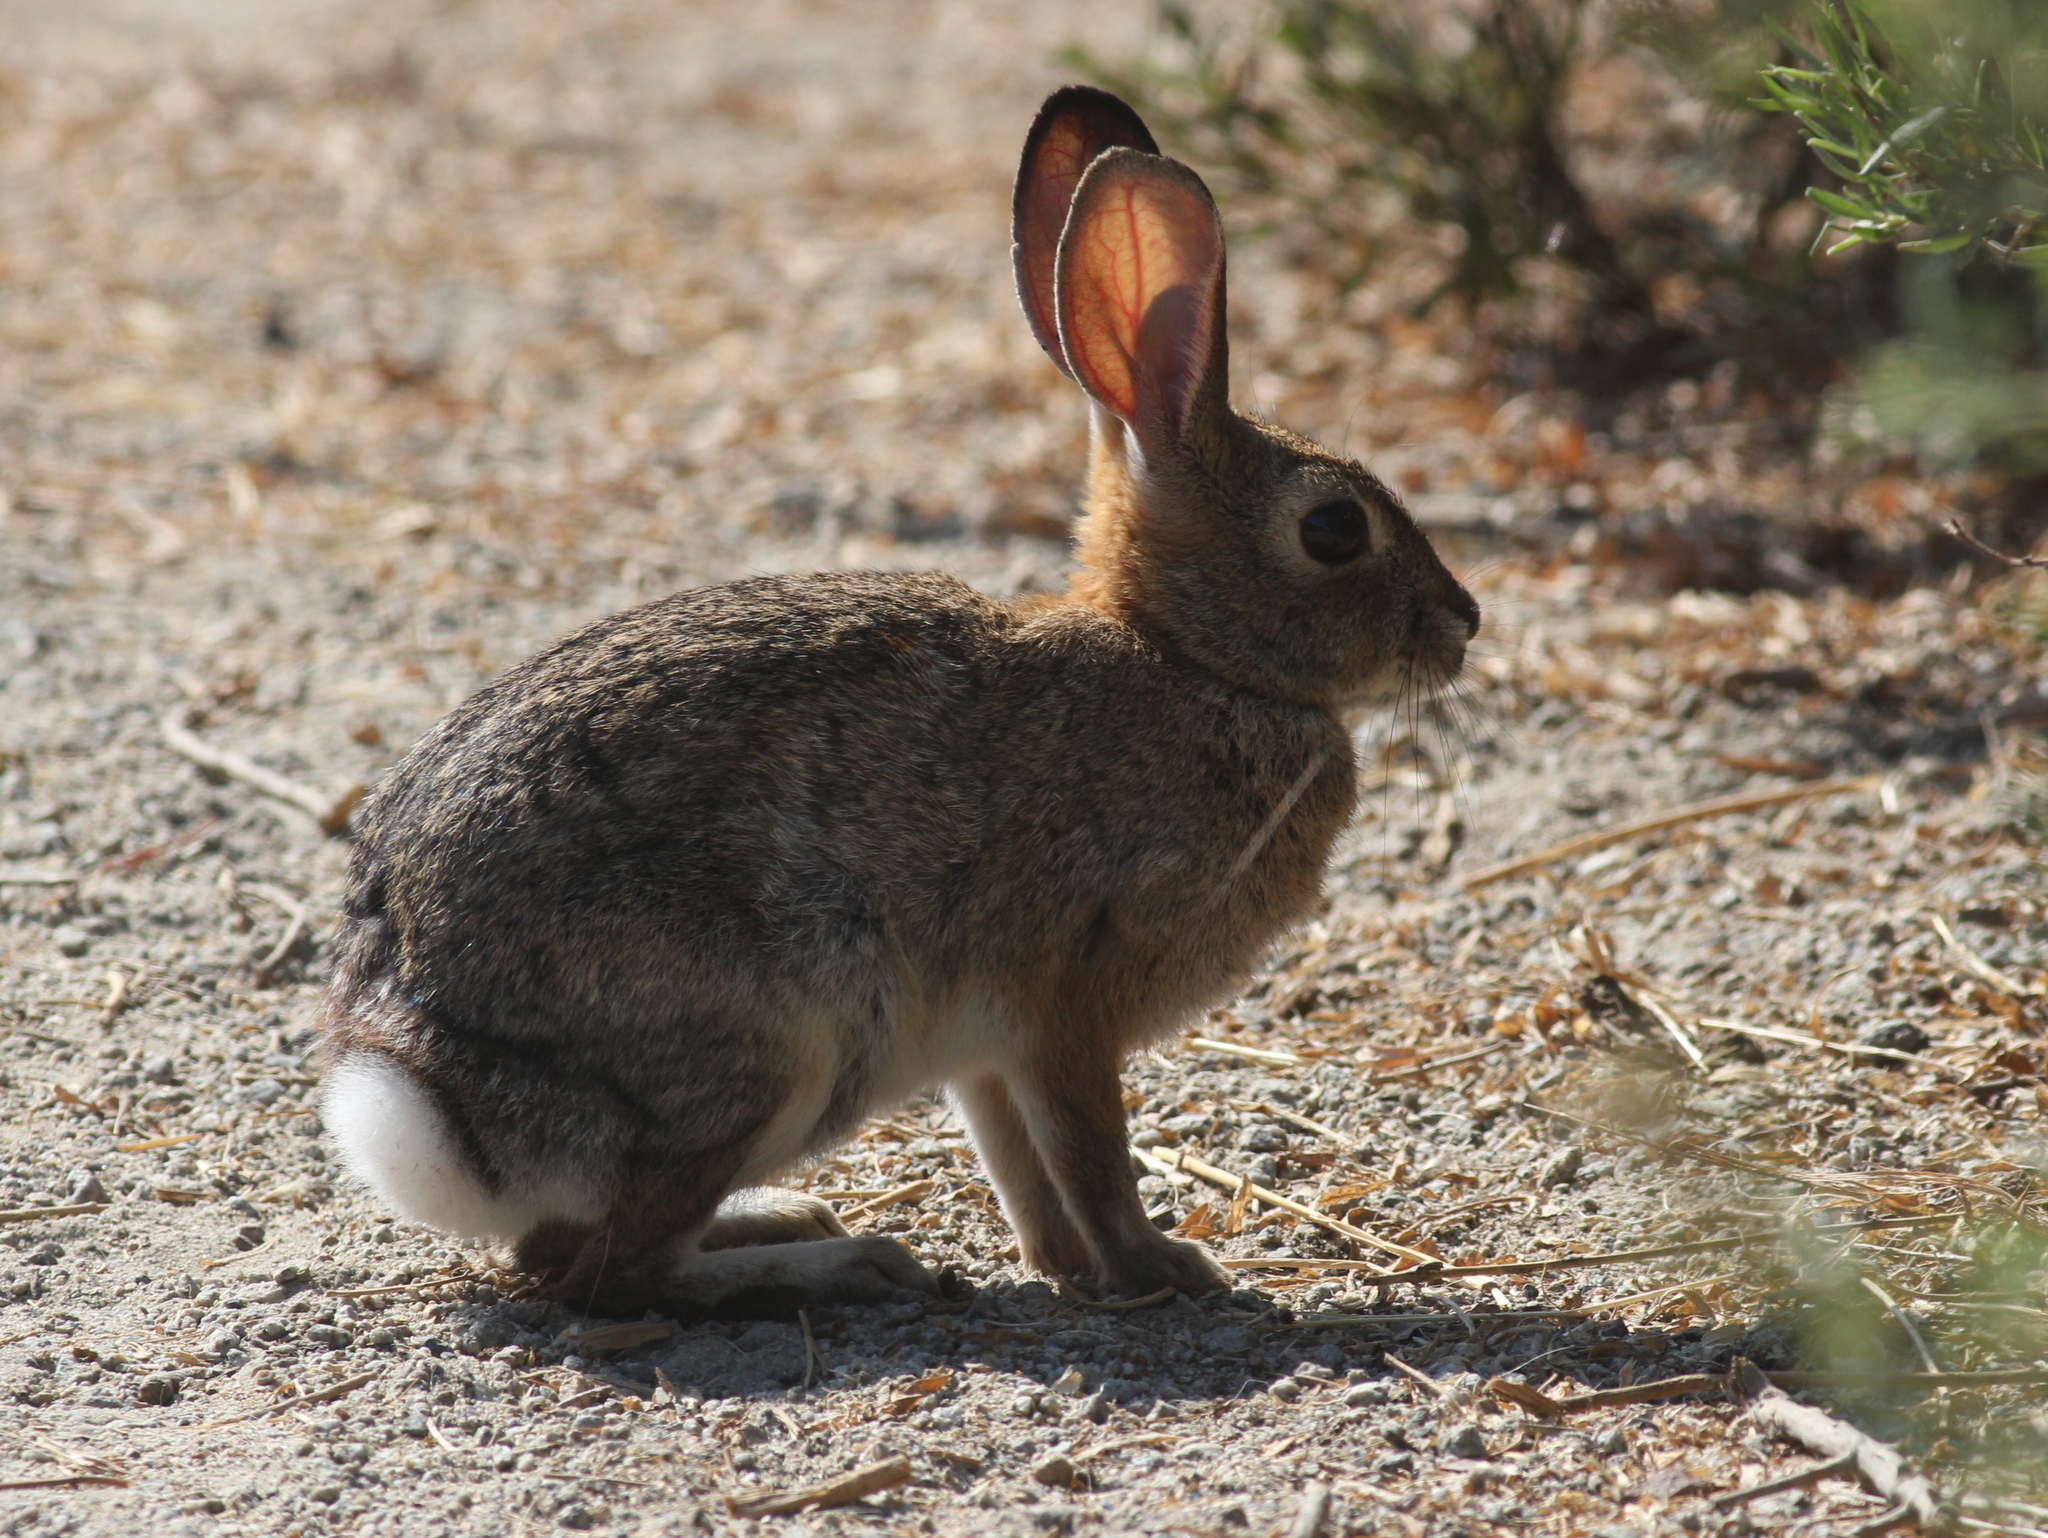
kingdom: Animalia
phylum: Chordata
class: Mammalia
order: Lagomorpha
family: Leporidae
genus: Sylvilagus
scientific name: Sylvilagus audubonii
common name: Desert cottontail
